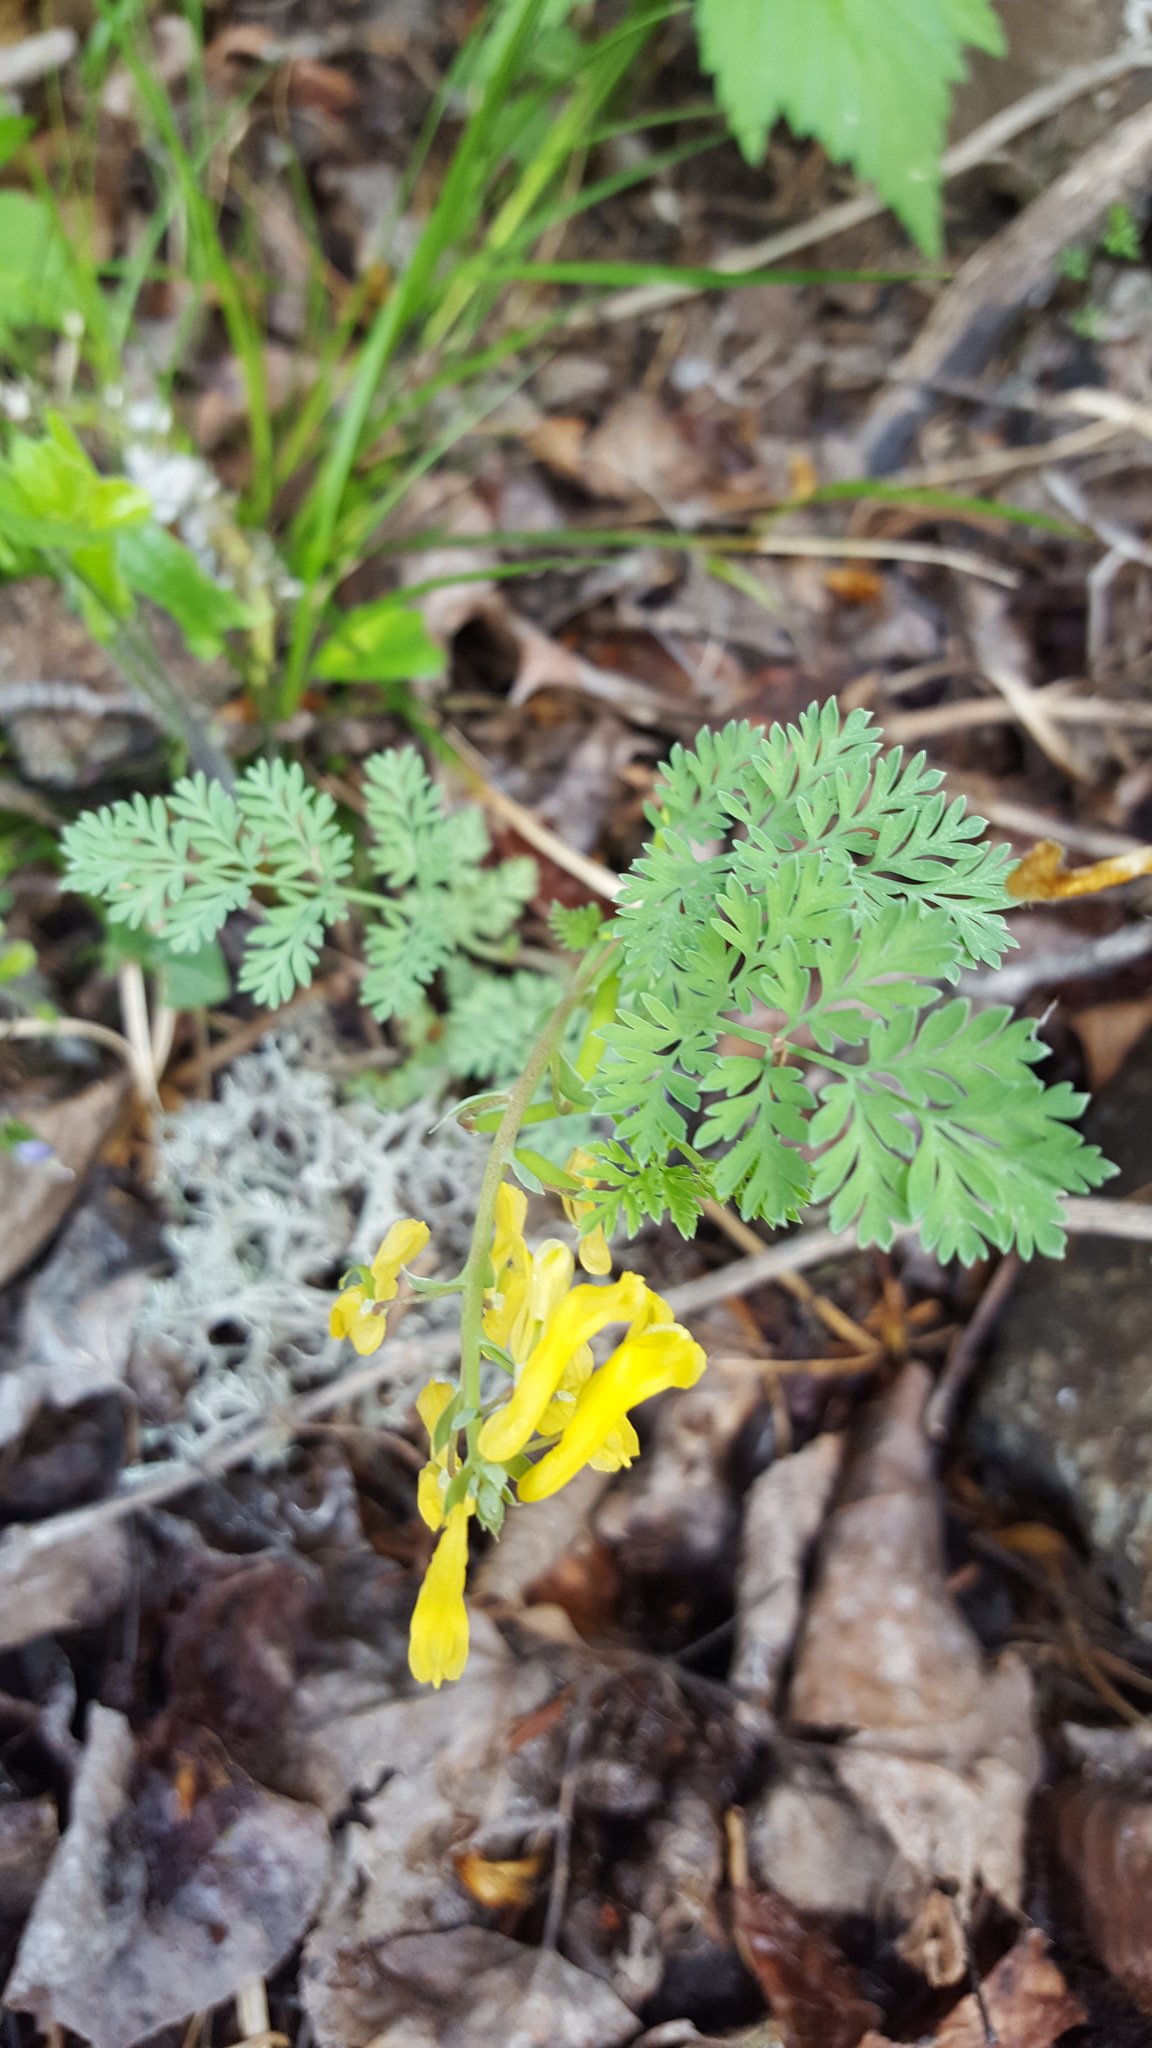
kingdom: Plantae
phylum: Tracheophyta
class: Magnoliopsida
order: Ranunculales
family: Papaveraceae
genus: Corydalis
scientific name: Corydalis aurea
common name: Golden corydalis
